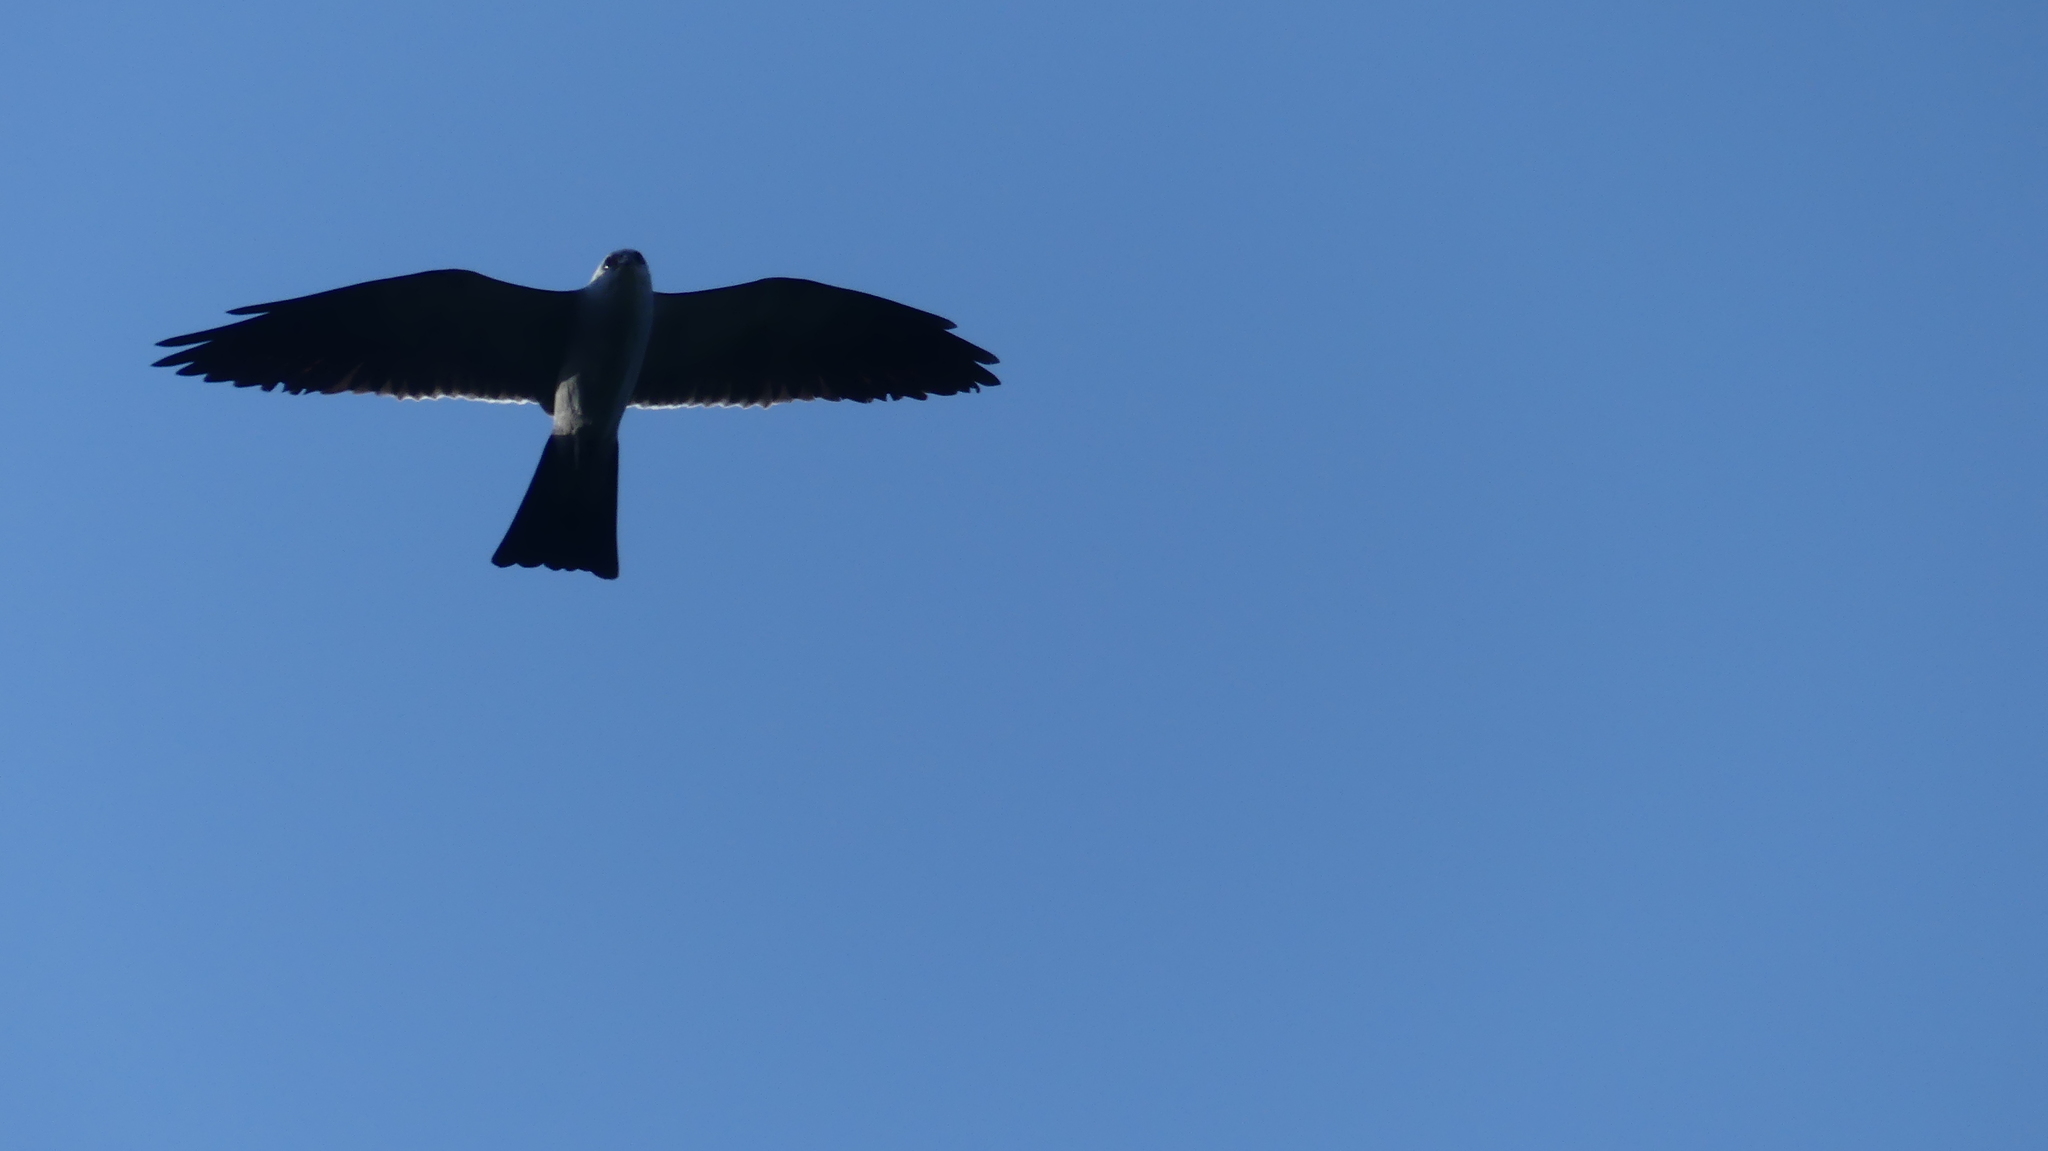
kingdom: Animalia
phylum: Chordata
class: Aves
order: Accipitriformes
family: Accipitridae
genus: Ictinia
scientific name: Ictinia mississippiensis
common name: Mississippi kite
